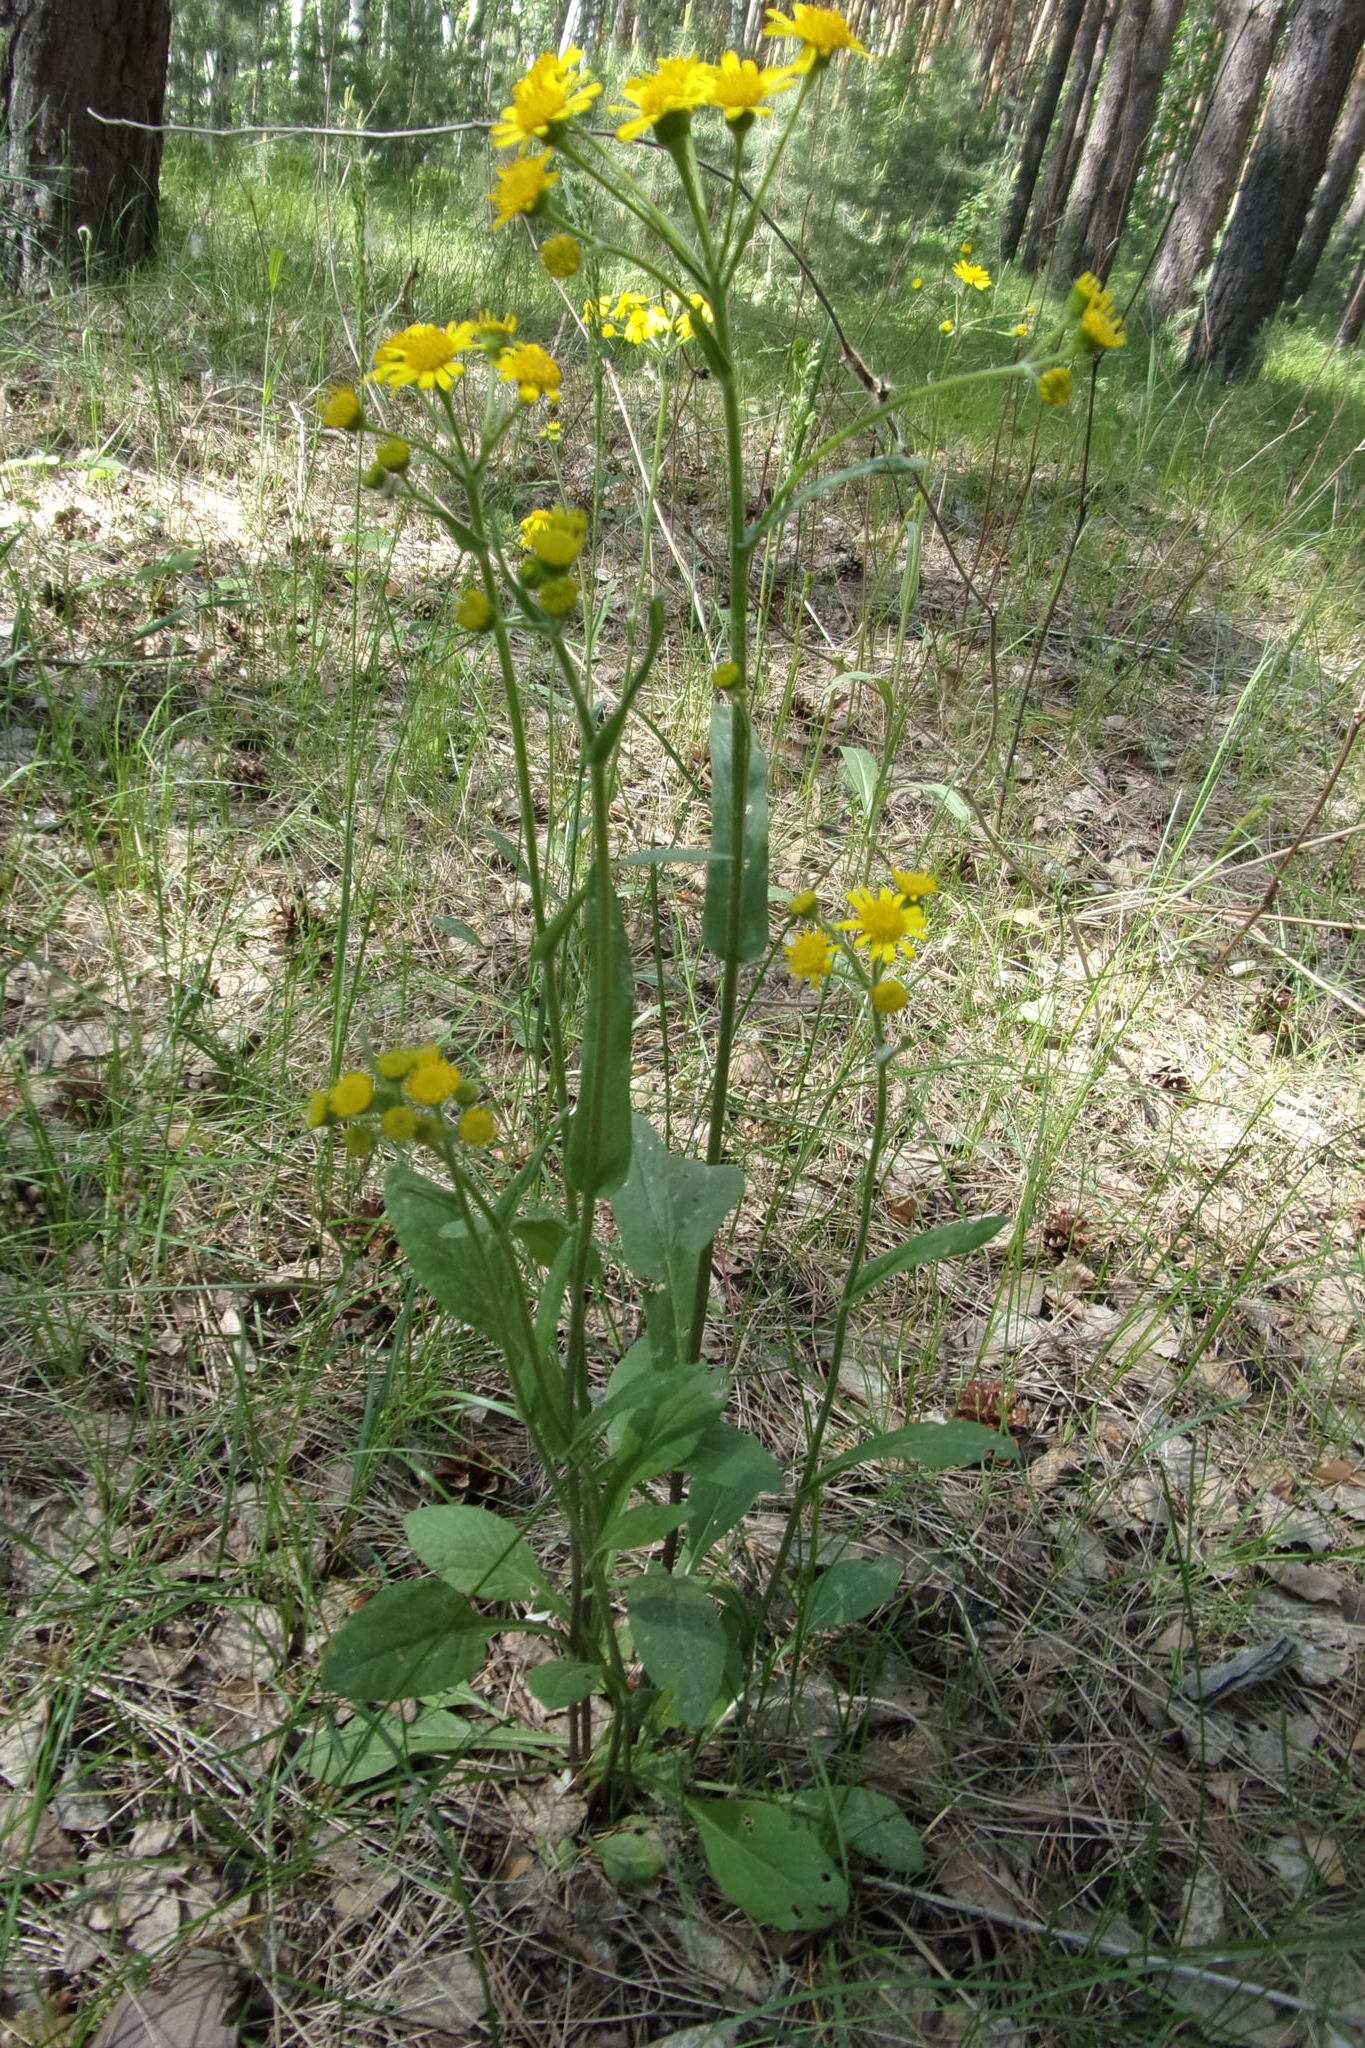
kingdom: Plantae
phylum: Tracheophyta
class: Magnoliopsida
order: Asterales
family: Asteraceae
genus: Tephroseris
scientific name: Tephroseris integrifolia
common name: Field fleawort
